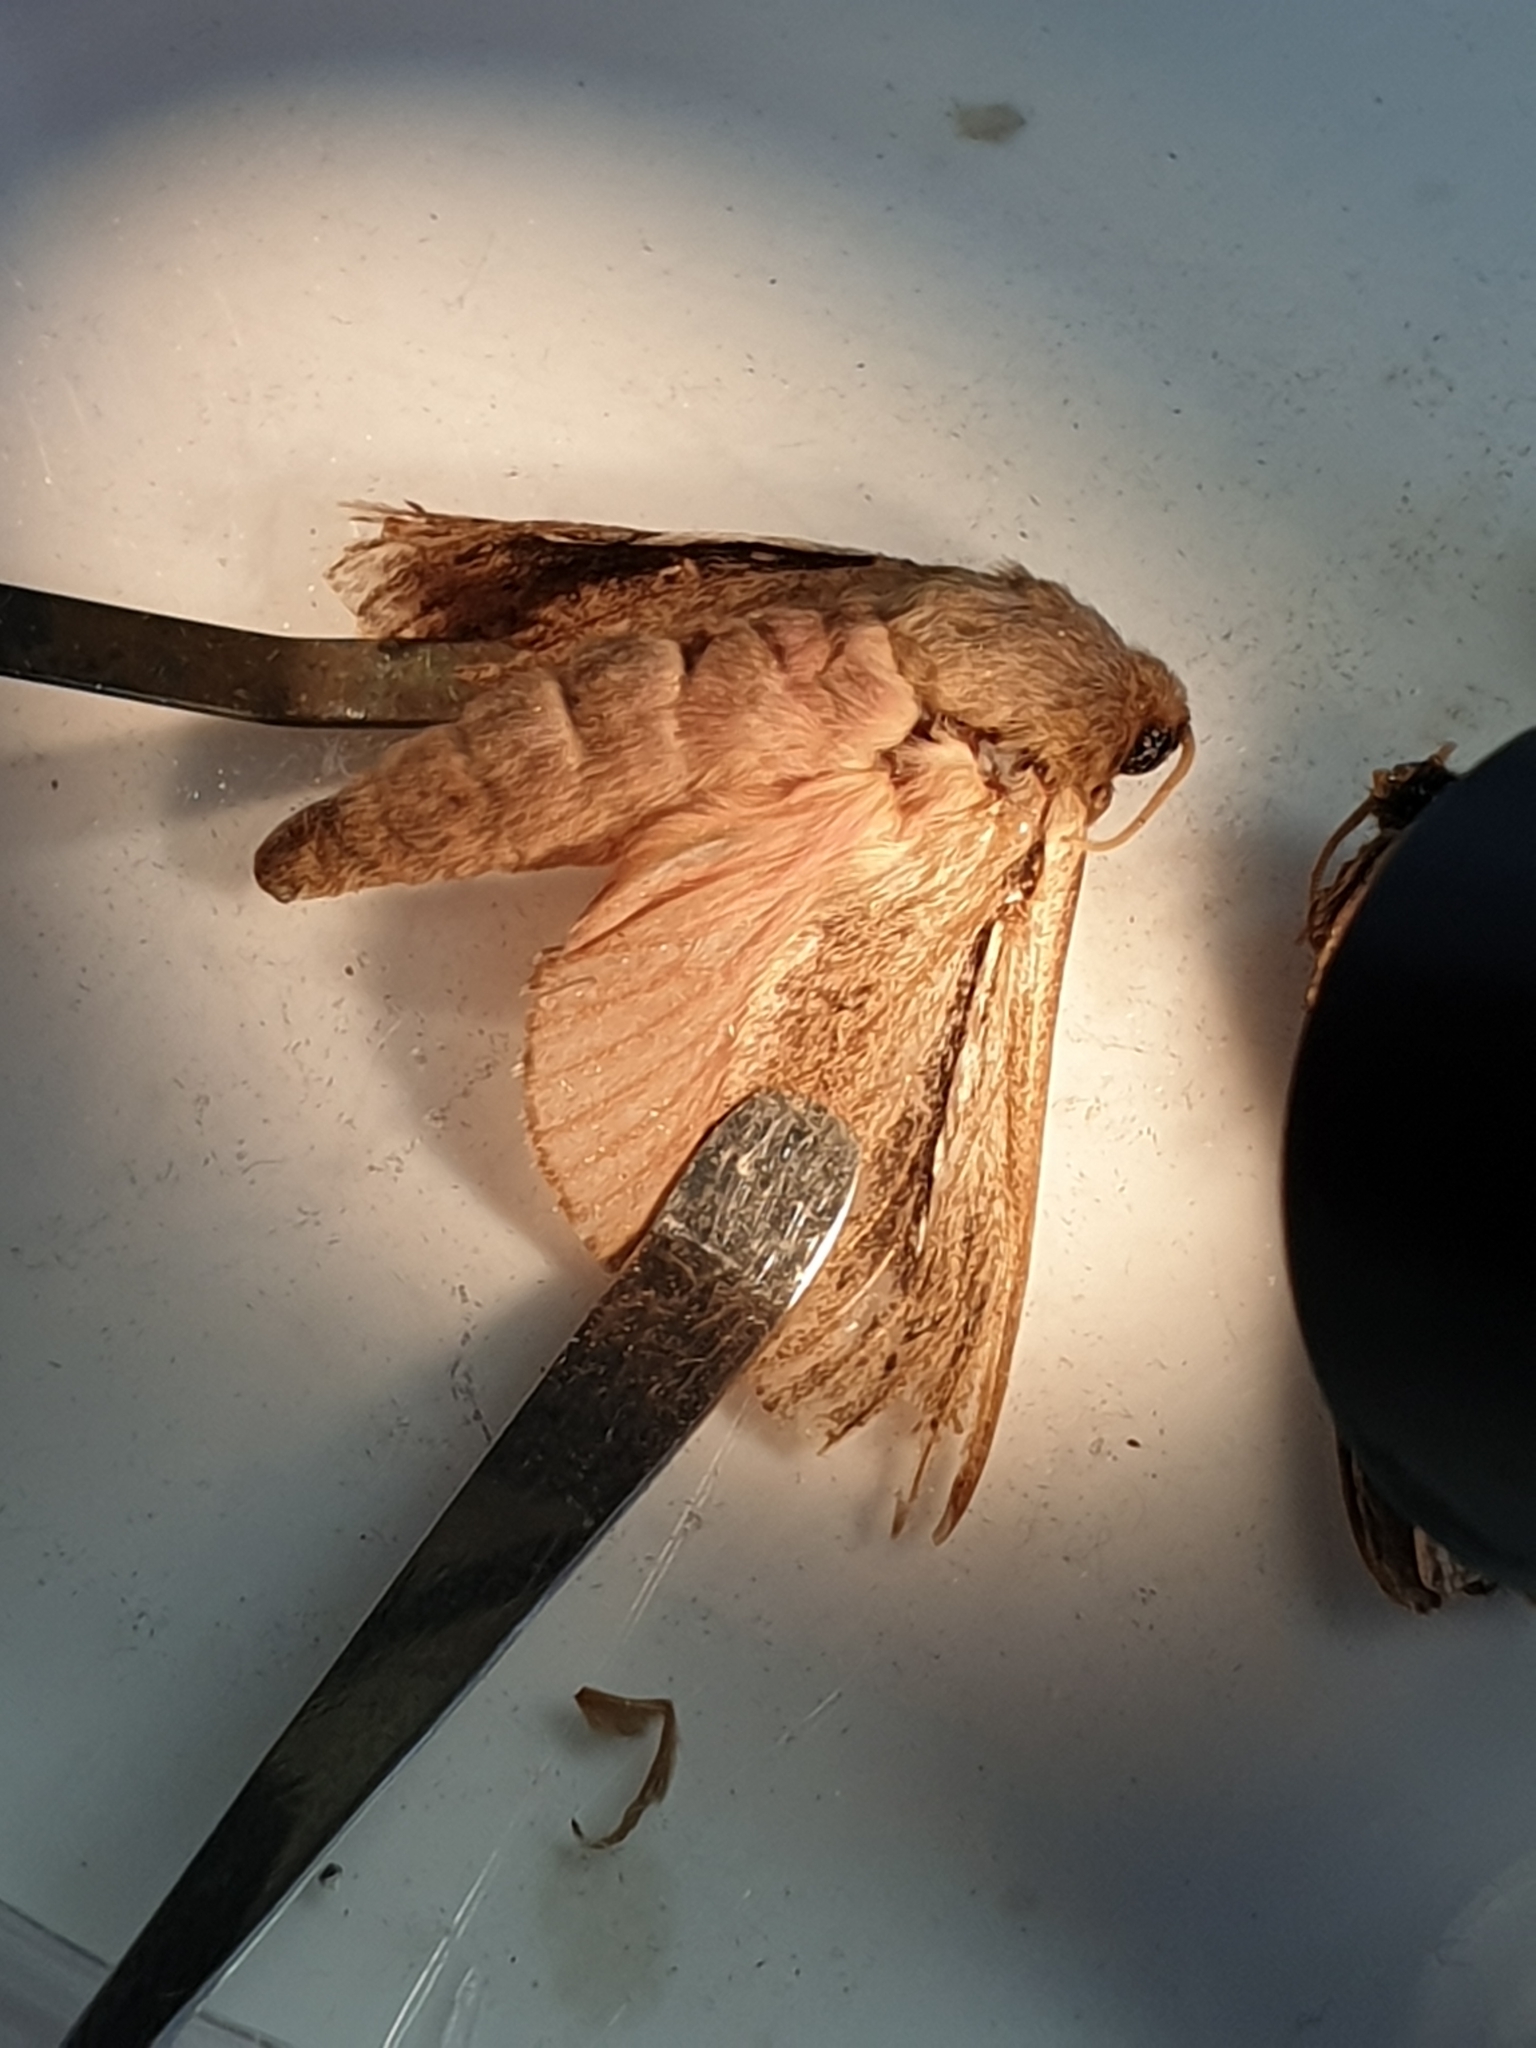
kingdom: Animalia
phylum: Arthropoda
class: Insecta
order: Lepidoptera
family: Hepialidae
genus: Wiseana
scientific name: Wiseana umbraculatus
